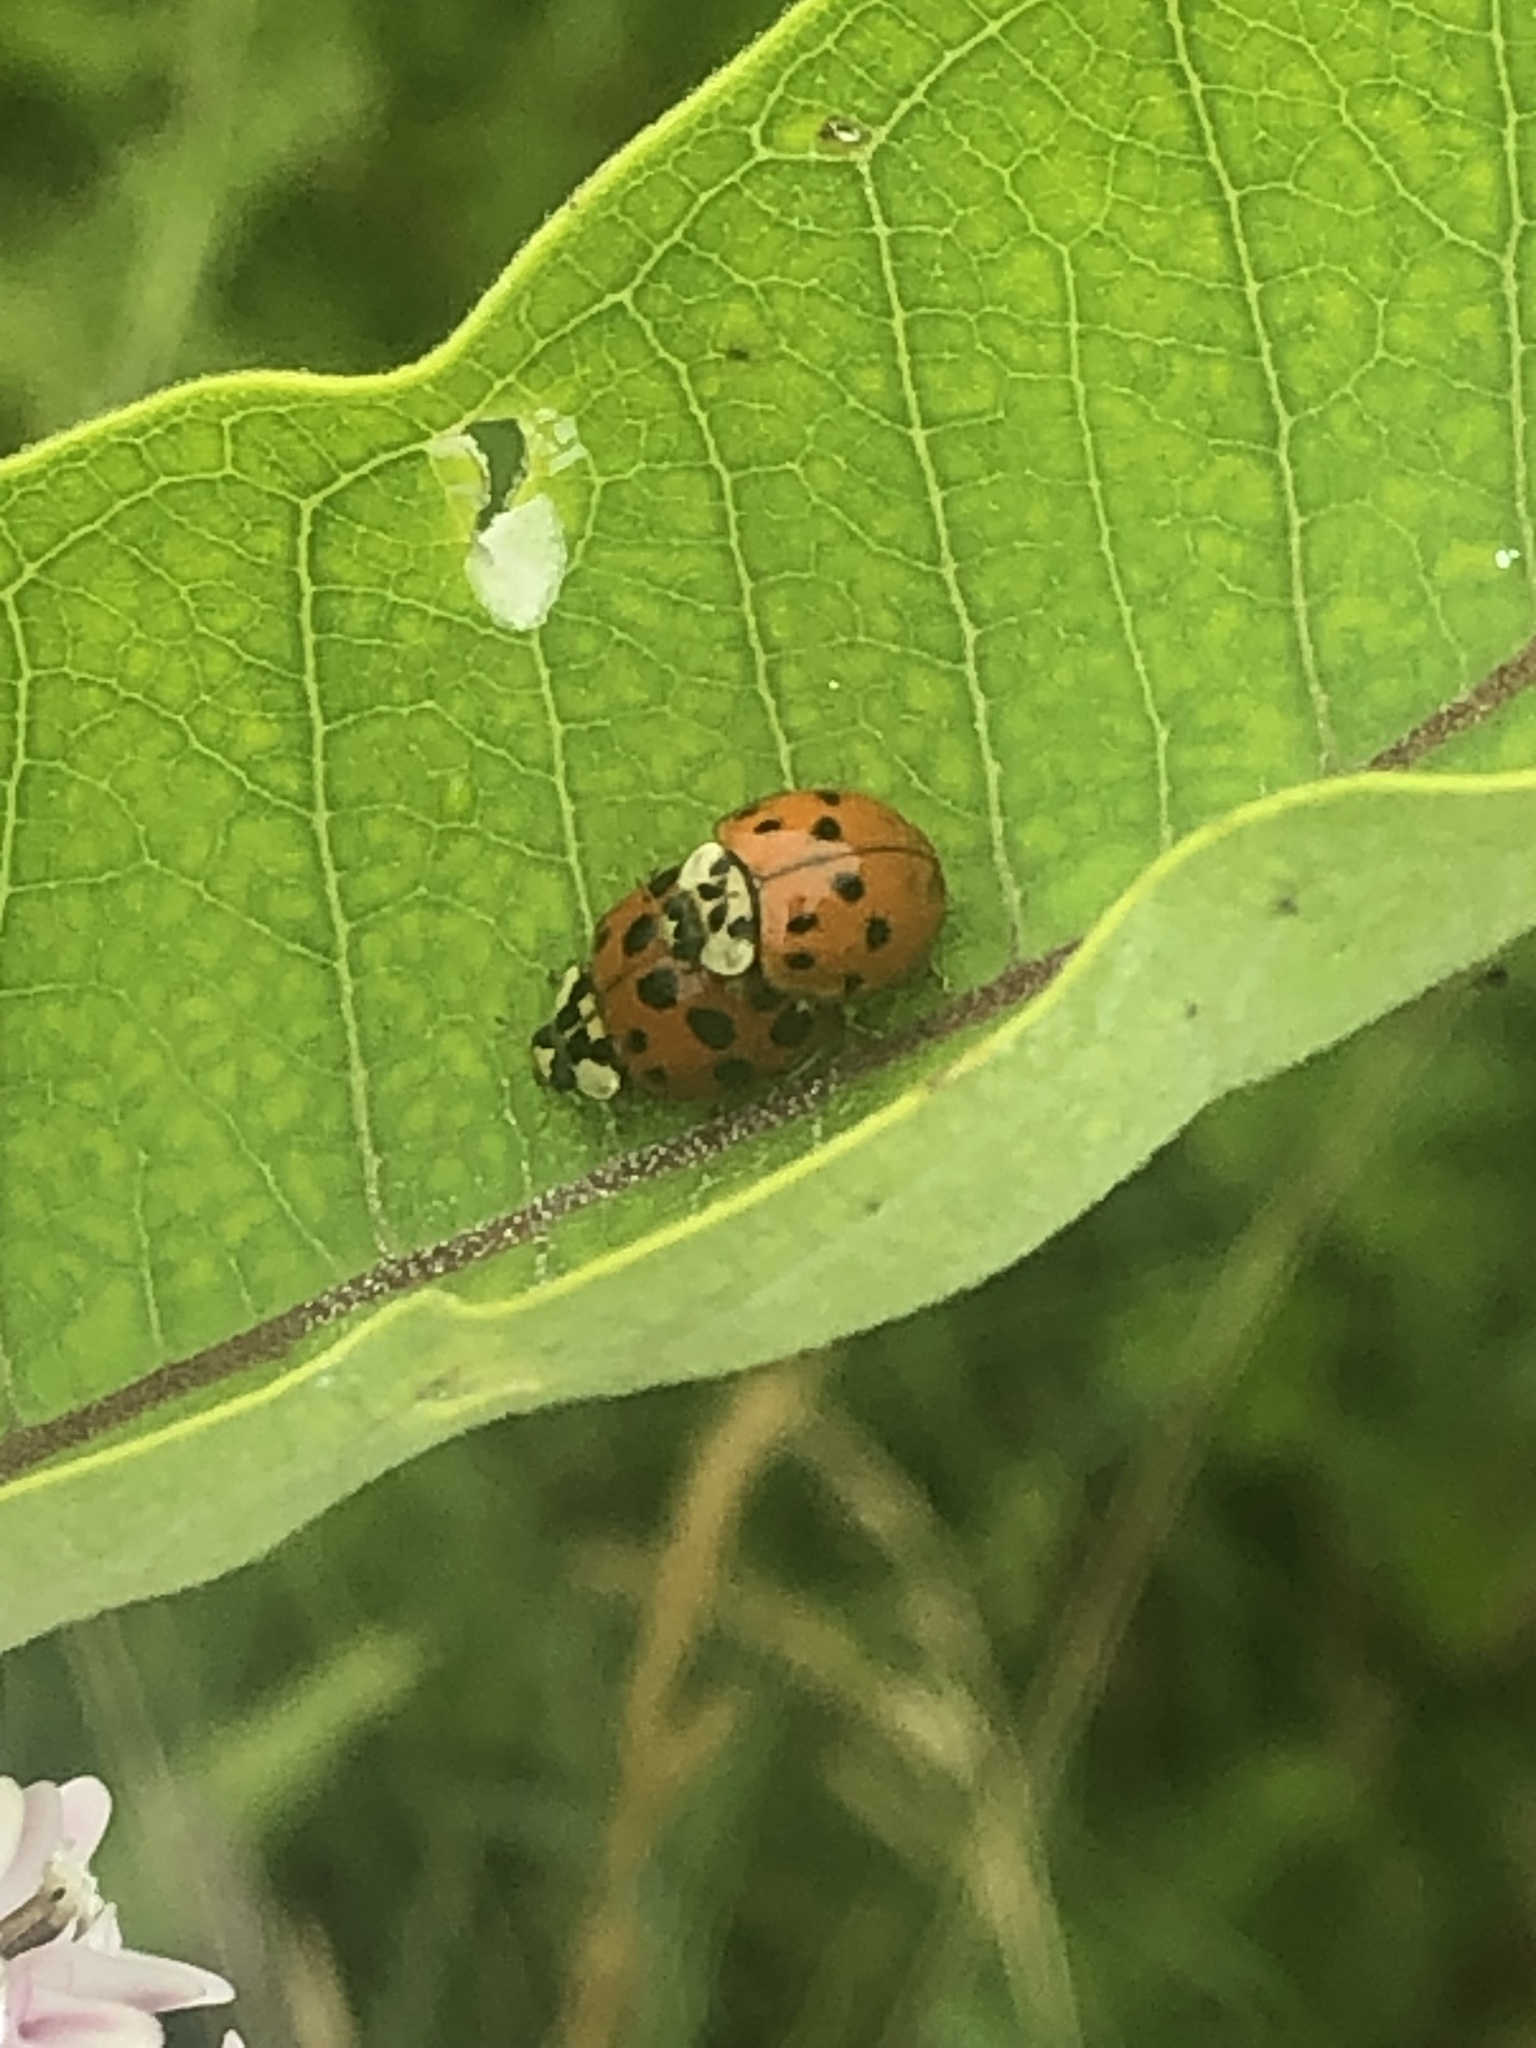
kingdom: Animalia
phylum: Arthropoda
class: Insecta
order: Coleoptera
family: Coccinellidae
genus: Harmonia
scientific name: Harmonia axyridis
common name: Harlequin ladybird
